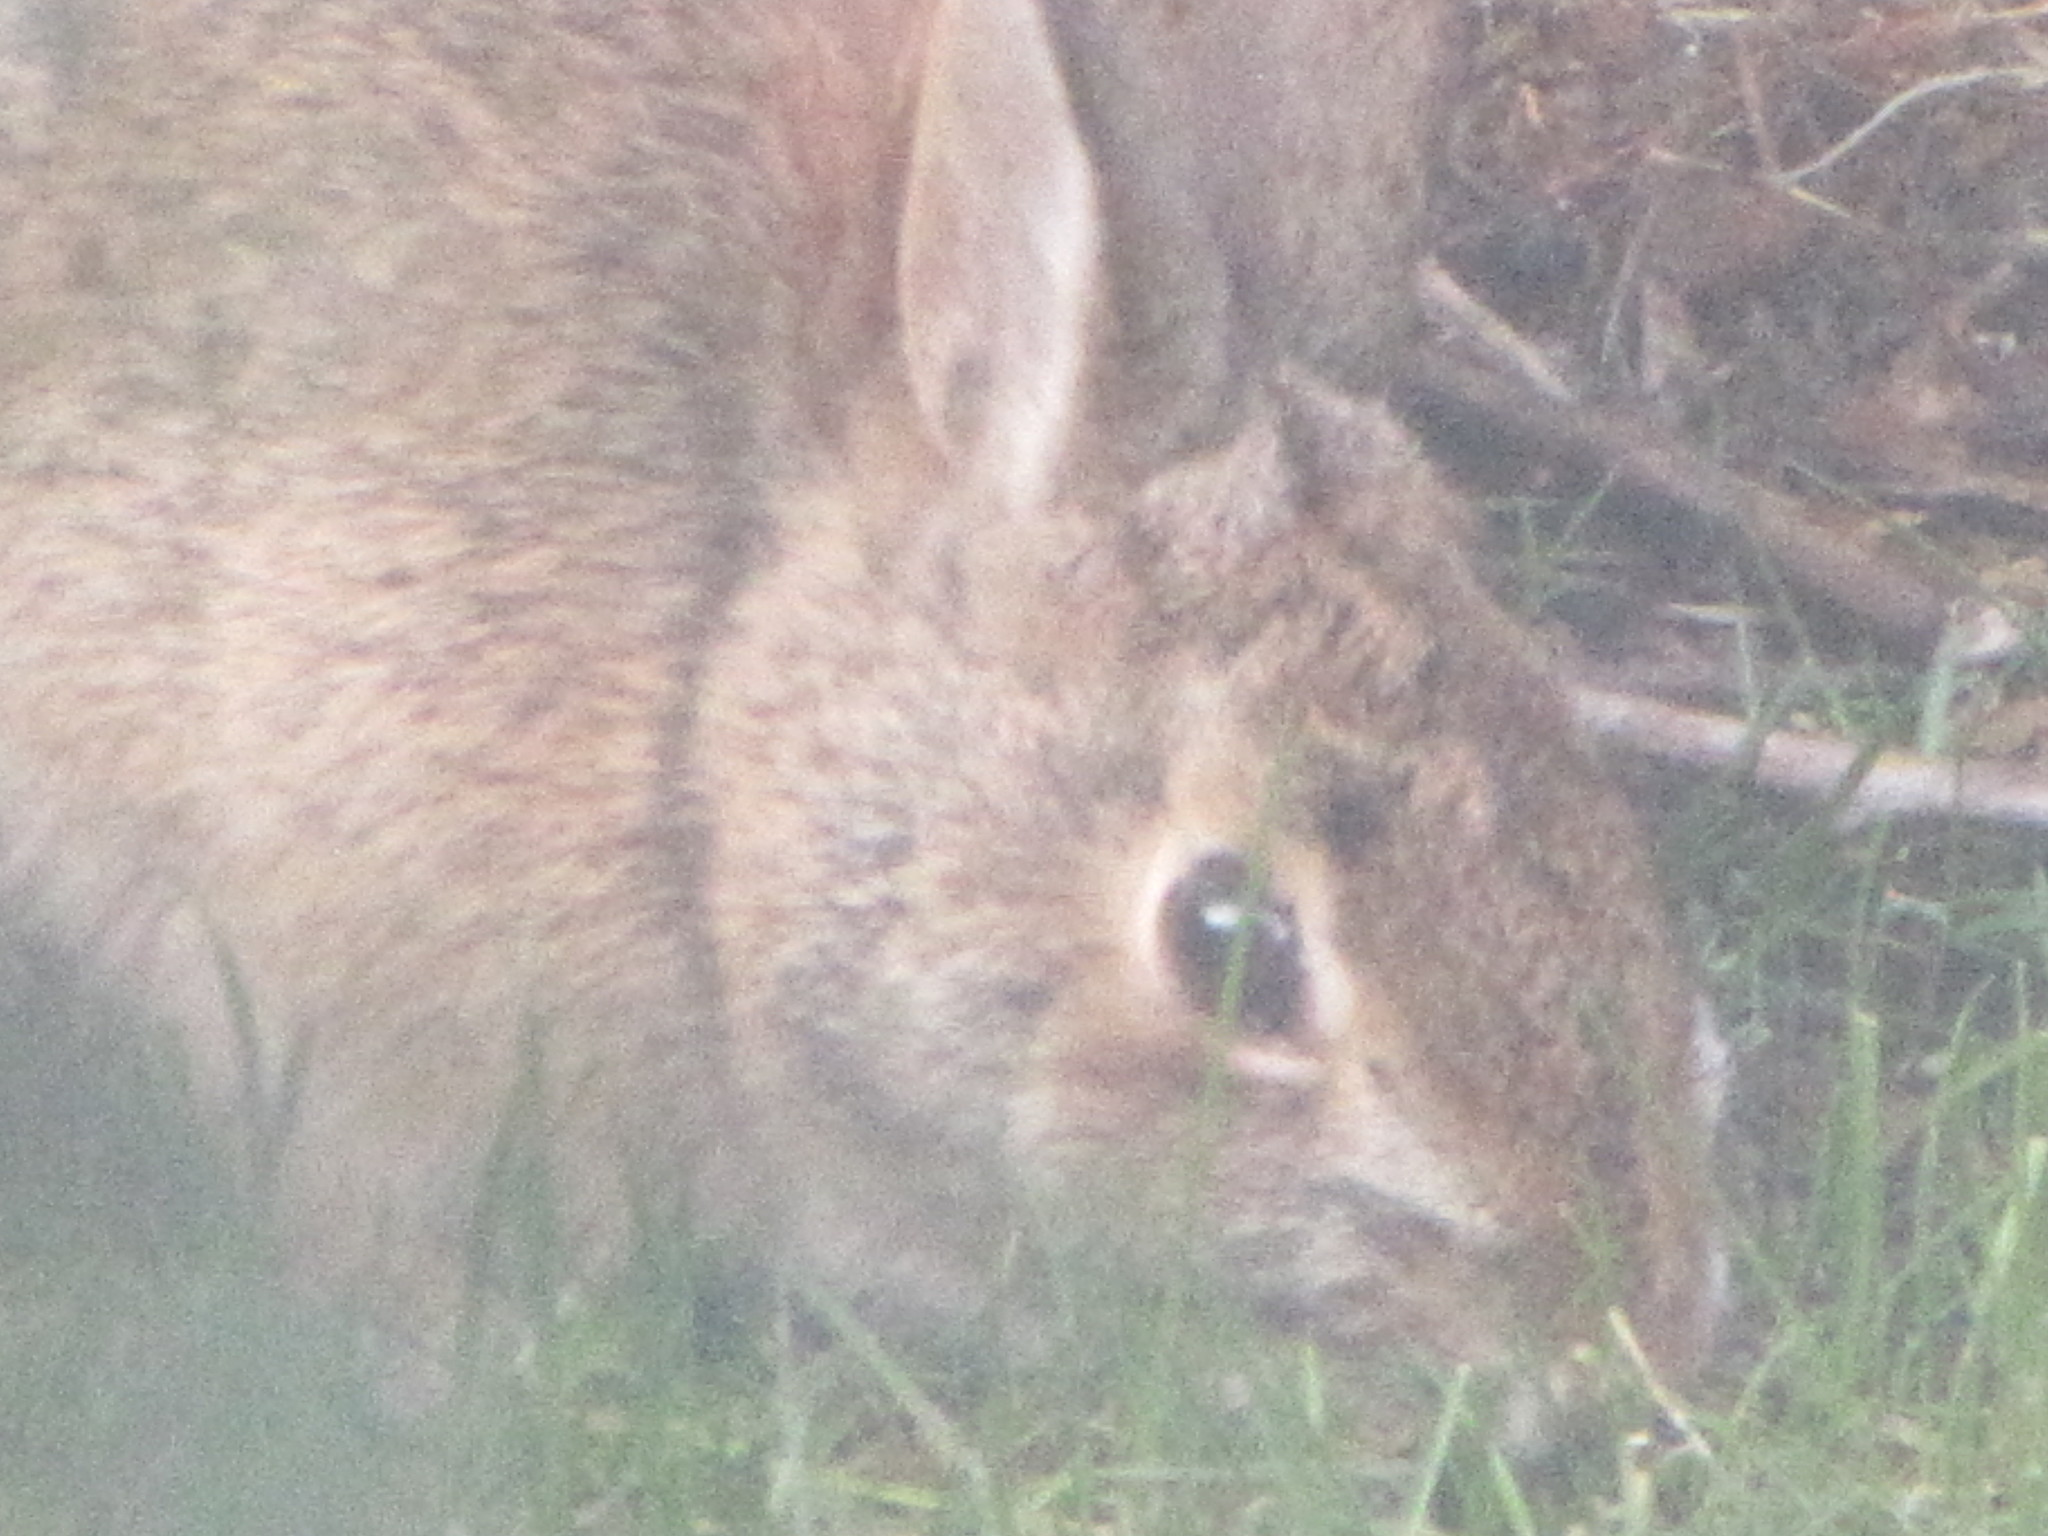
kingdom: Animalia
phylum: Chordata
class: Mammalia
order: Lagomorpha
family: Leporidae
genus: Sylvilagus
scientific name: Sylvilagus floridanus
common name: Eastern cottontail
